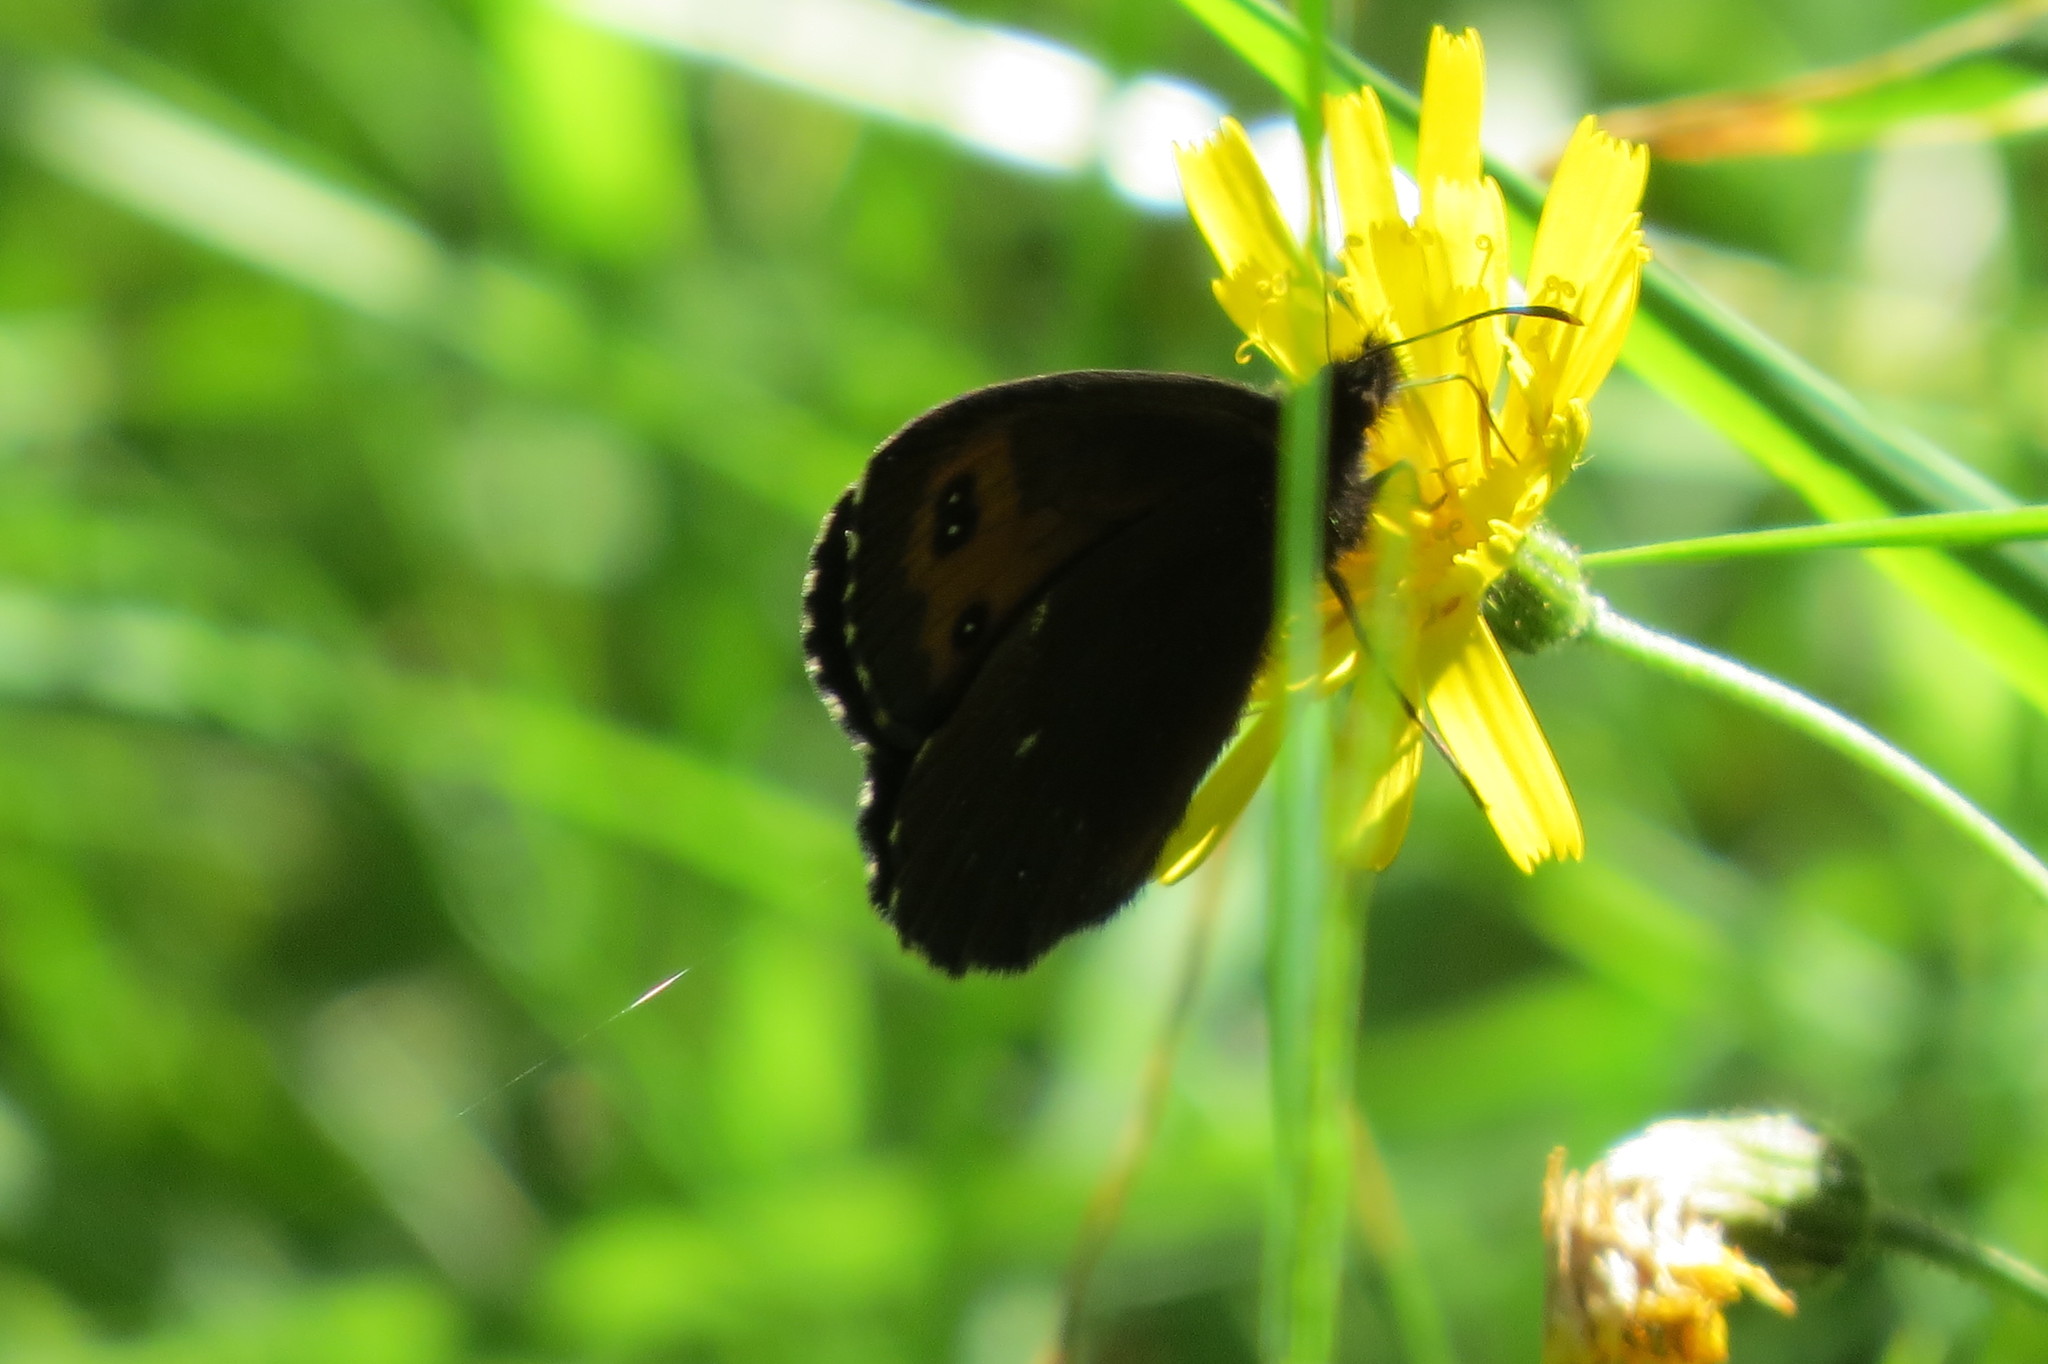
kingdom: Animalia
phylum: Arthropoda
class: Insecta
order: Lepidoptera
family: Nymphalidae
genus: Erebia
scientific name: Erebia euryale
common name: Large ringlet
